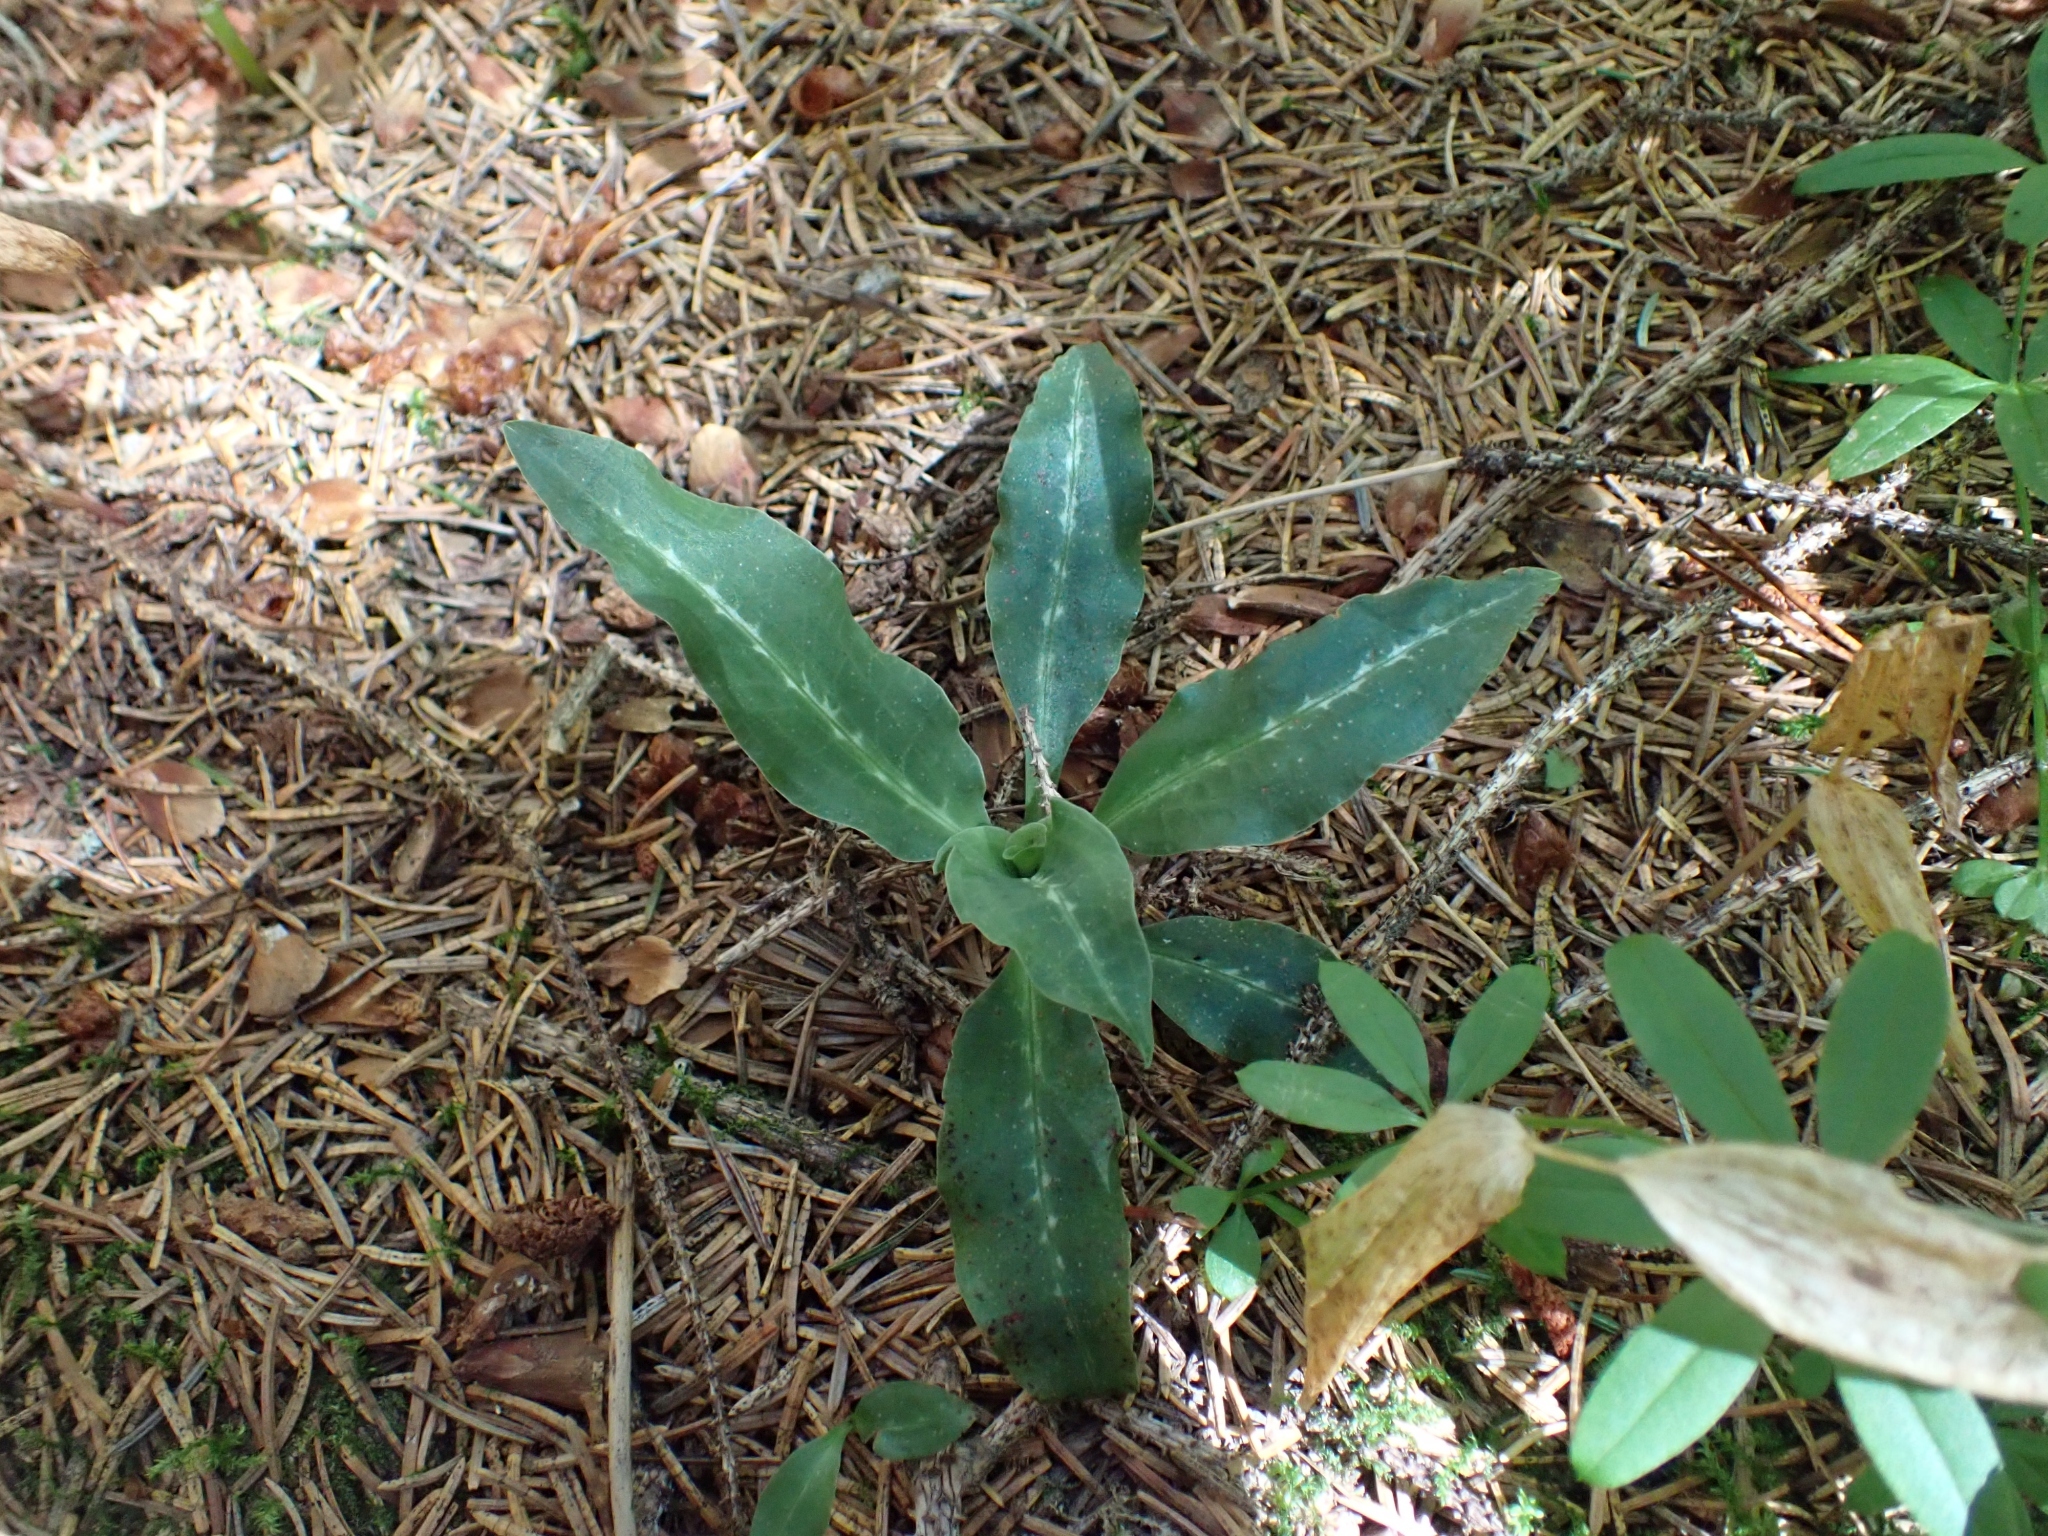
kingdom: Plantae
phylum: Tracheophyta
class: Liliopsida
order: Asparagales
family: Orchidaceae
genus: Goodyera
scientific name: Goodyera oblongifolia
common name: Giant rattlesnake-plantain
